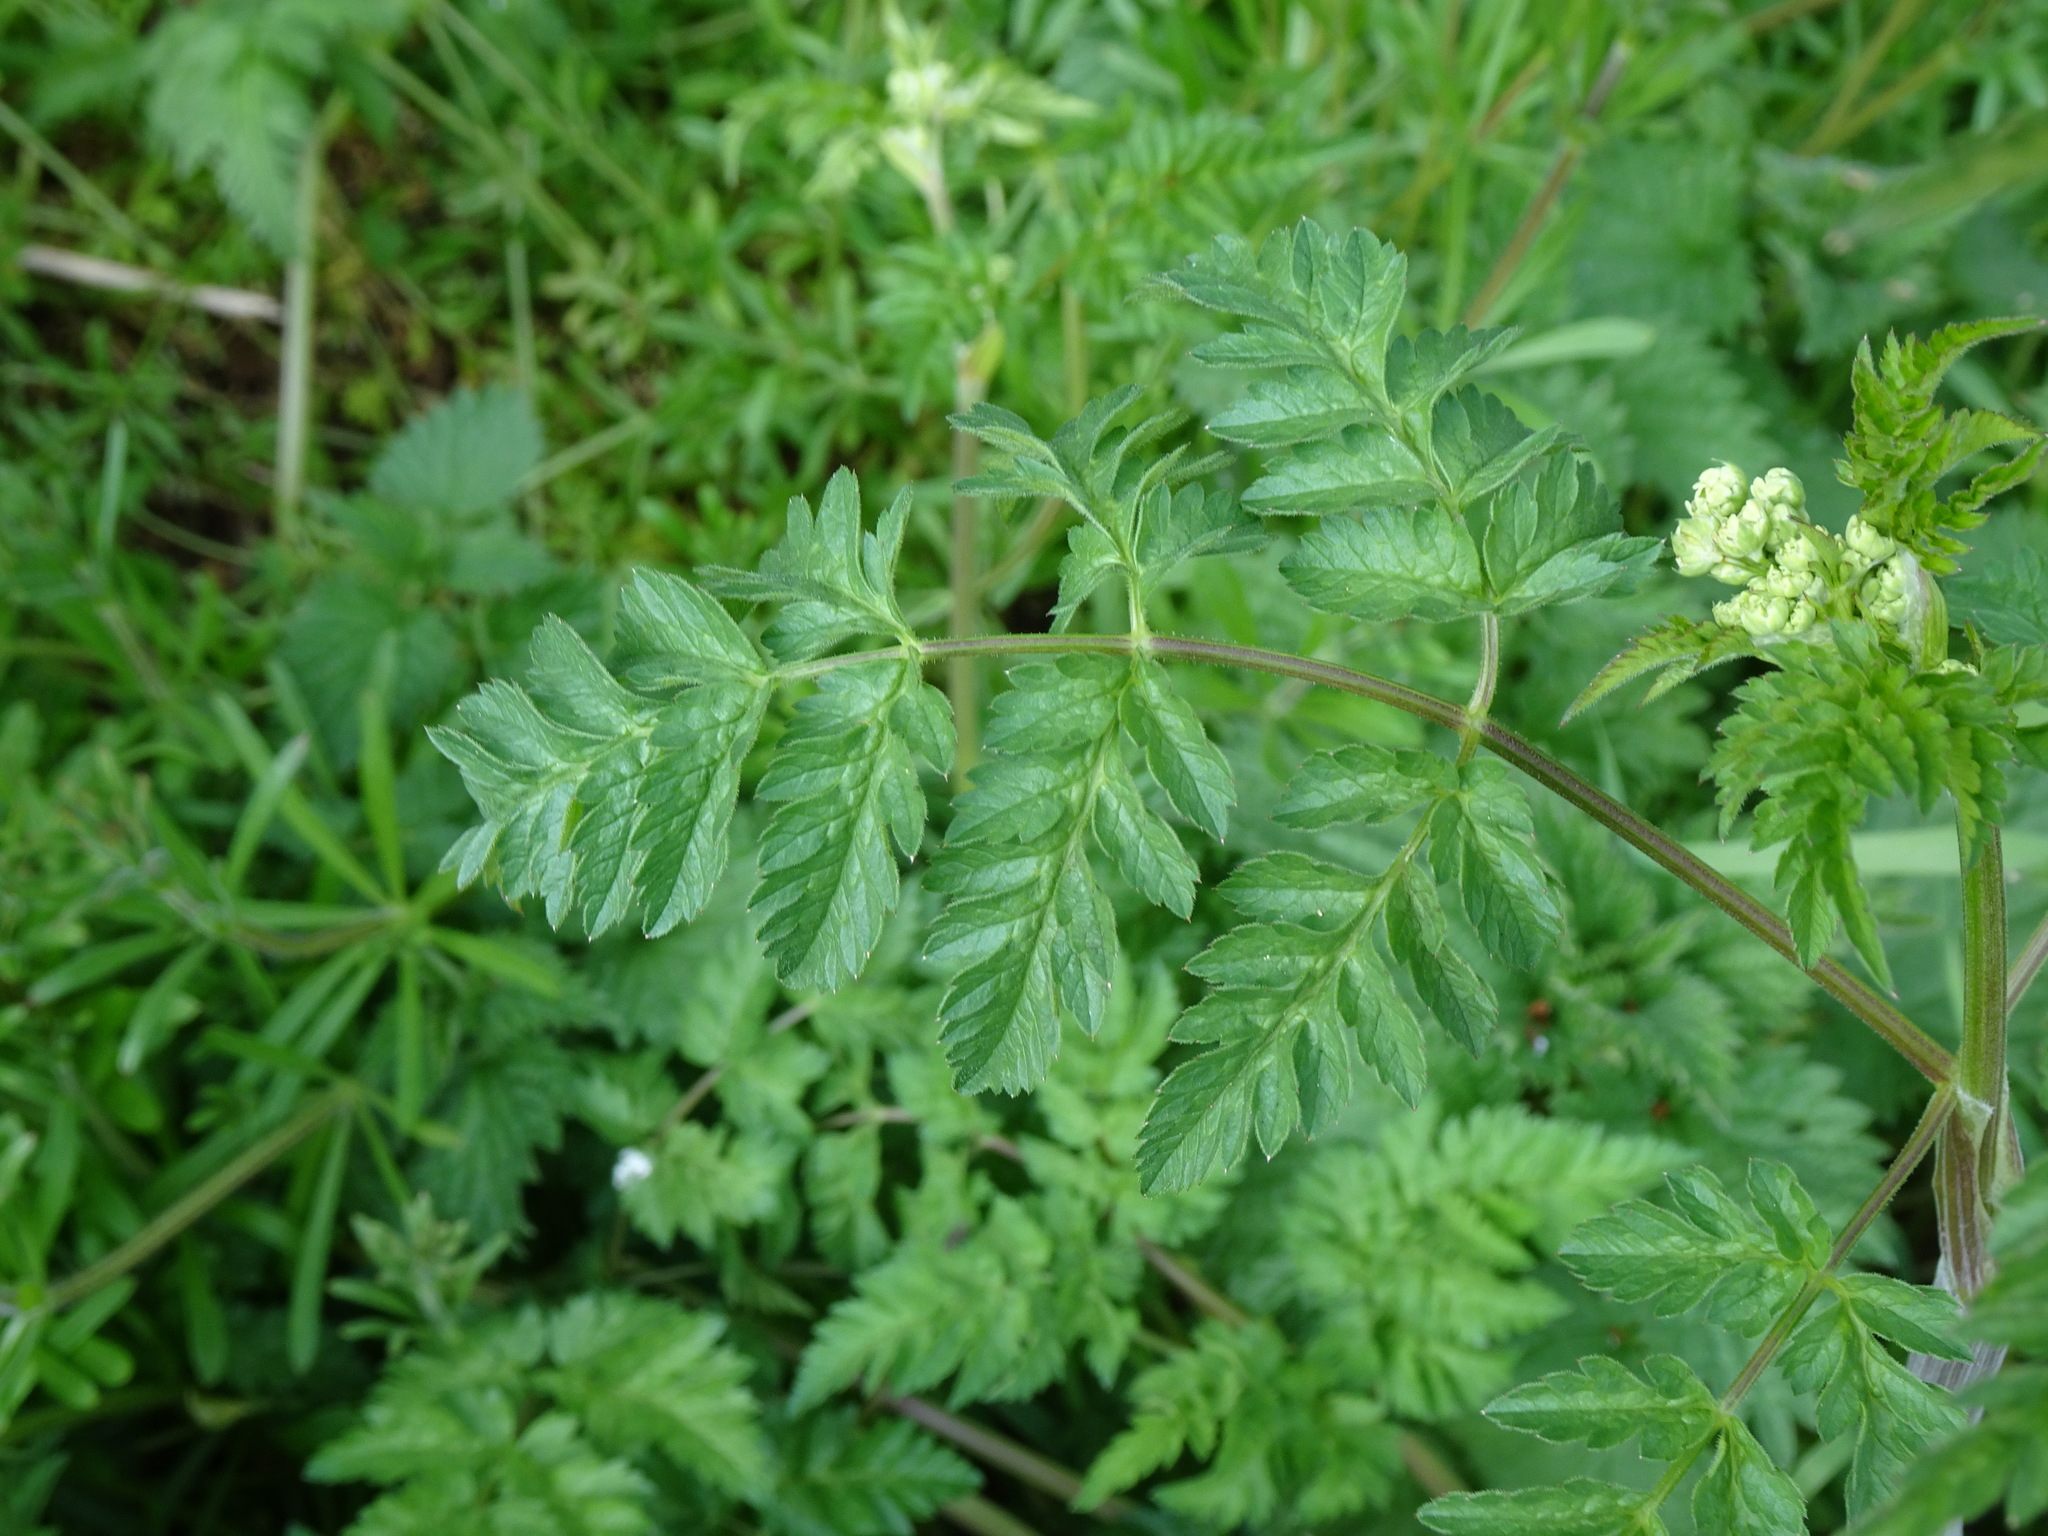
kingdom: Plantae
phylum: Tracheophyta
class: Magnoliopsida
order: Apiales
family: Apiaceae
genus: Anthriscus
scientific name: Anthriscus sylvestris
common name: Cow parsley
